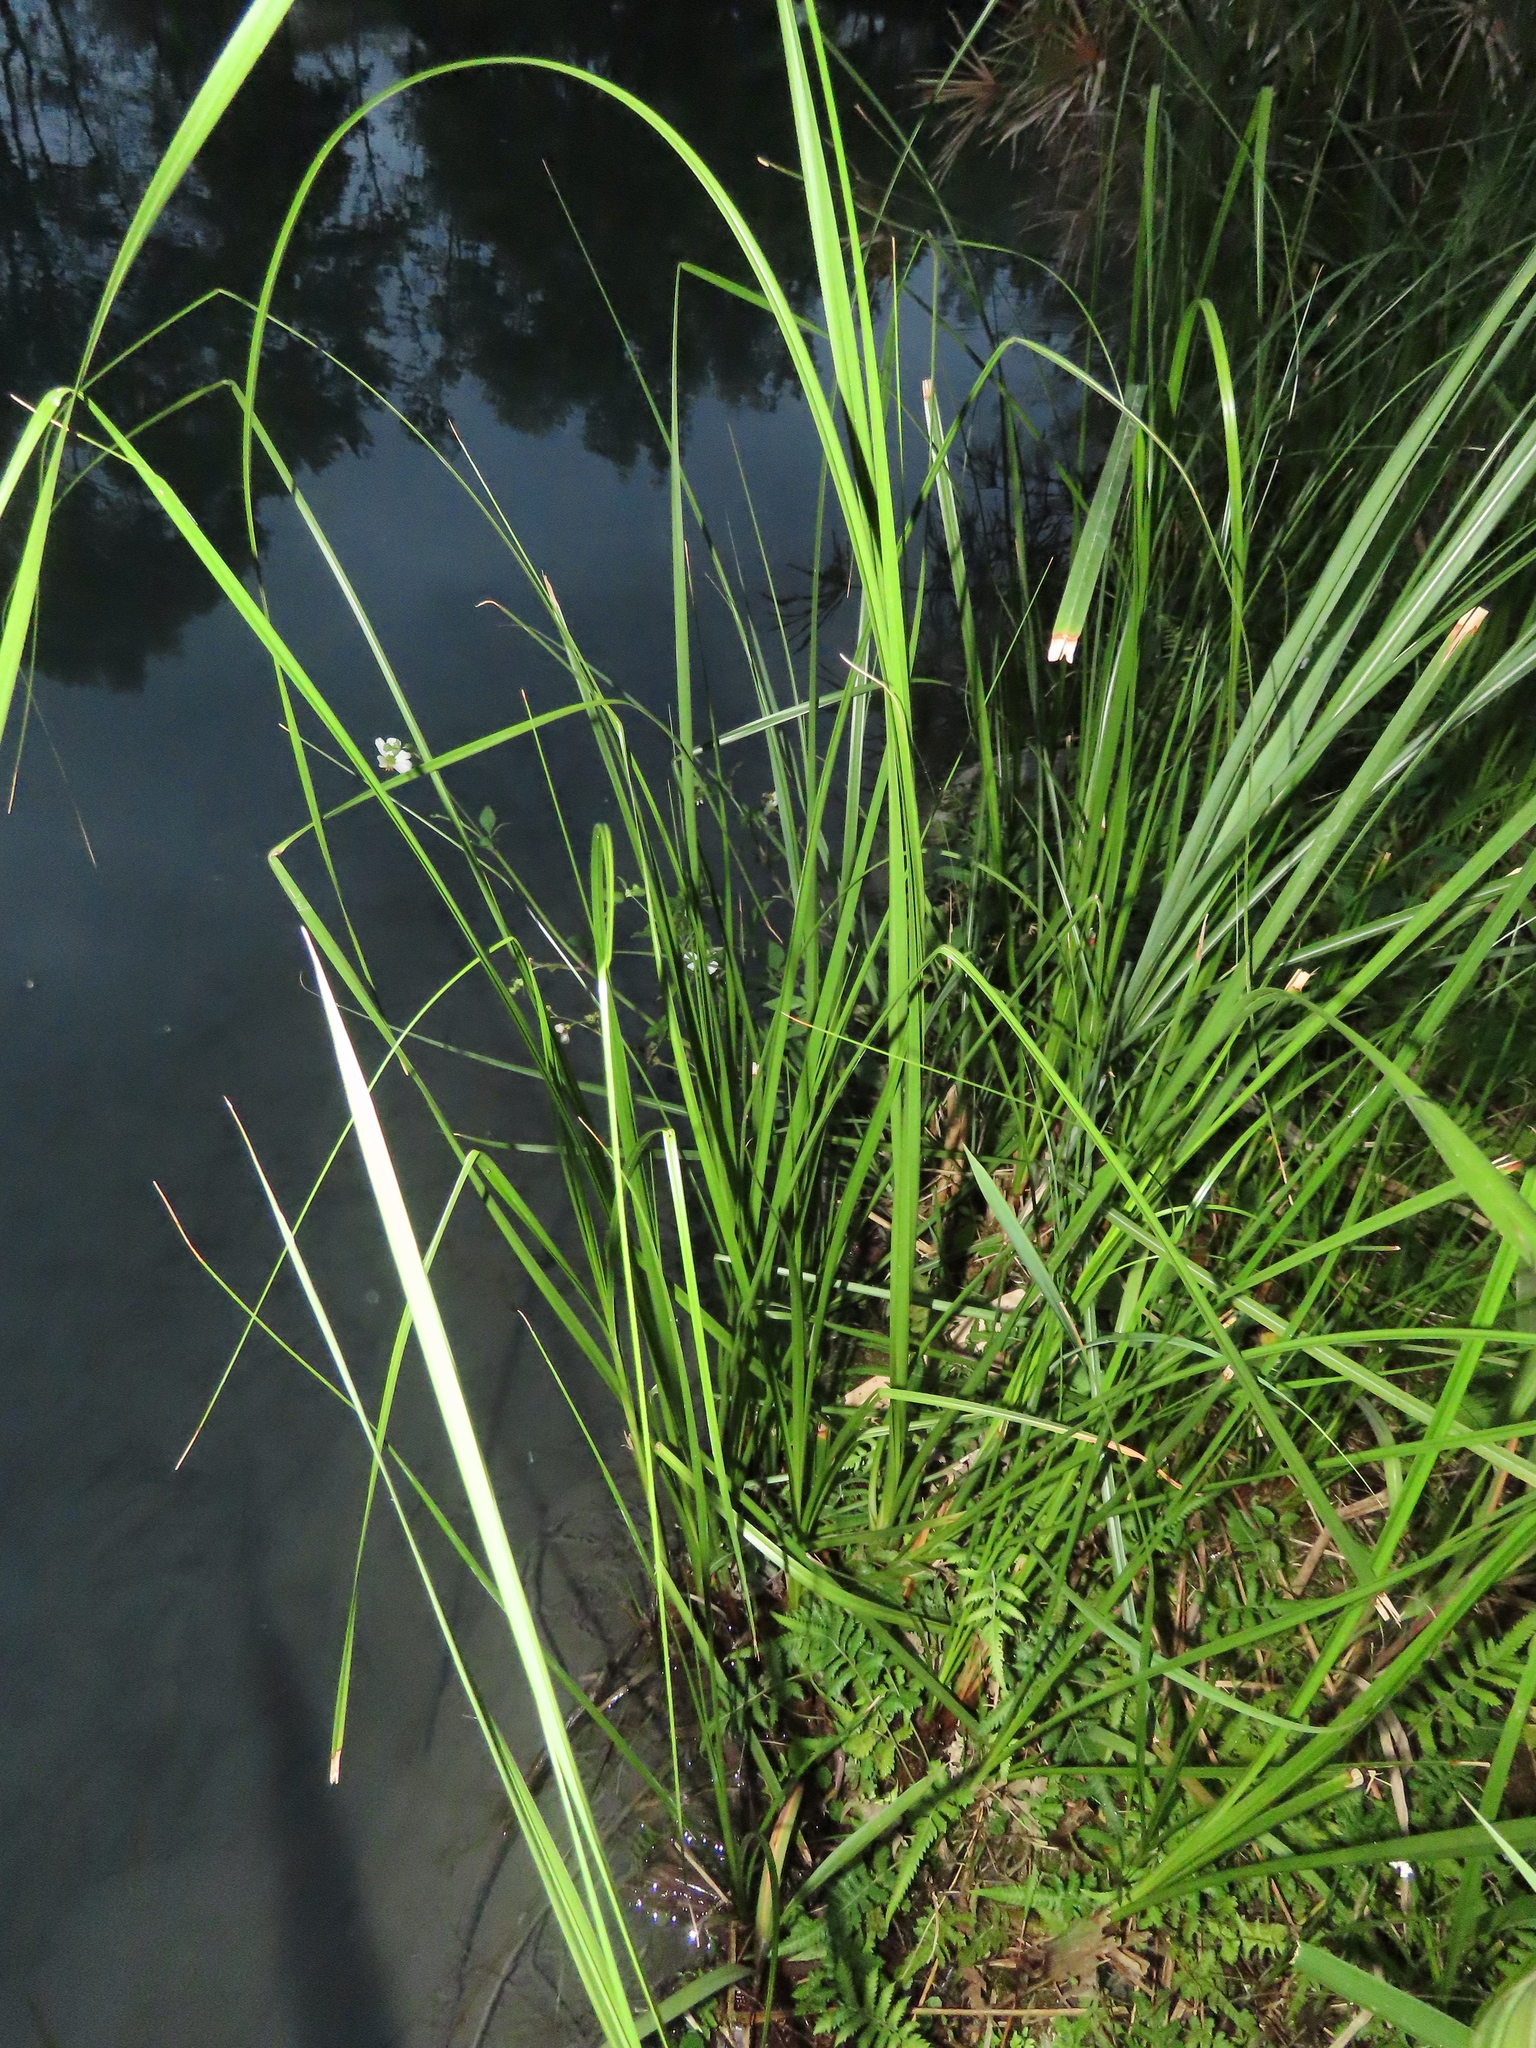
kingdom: Plantae
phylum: Tracheophyta
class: Liliopsida
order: Poales
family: Cyperaceae
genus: Cladium
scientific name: Cladium mariscus
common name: Great fen-sedge
